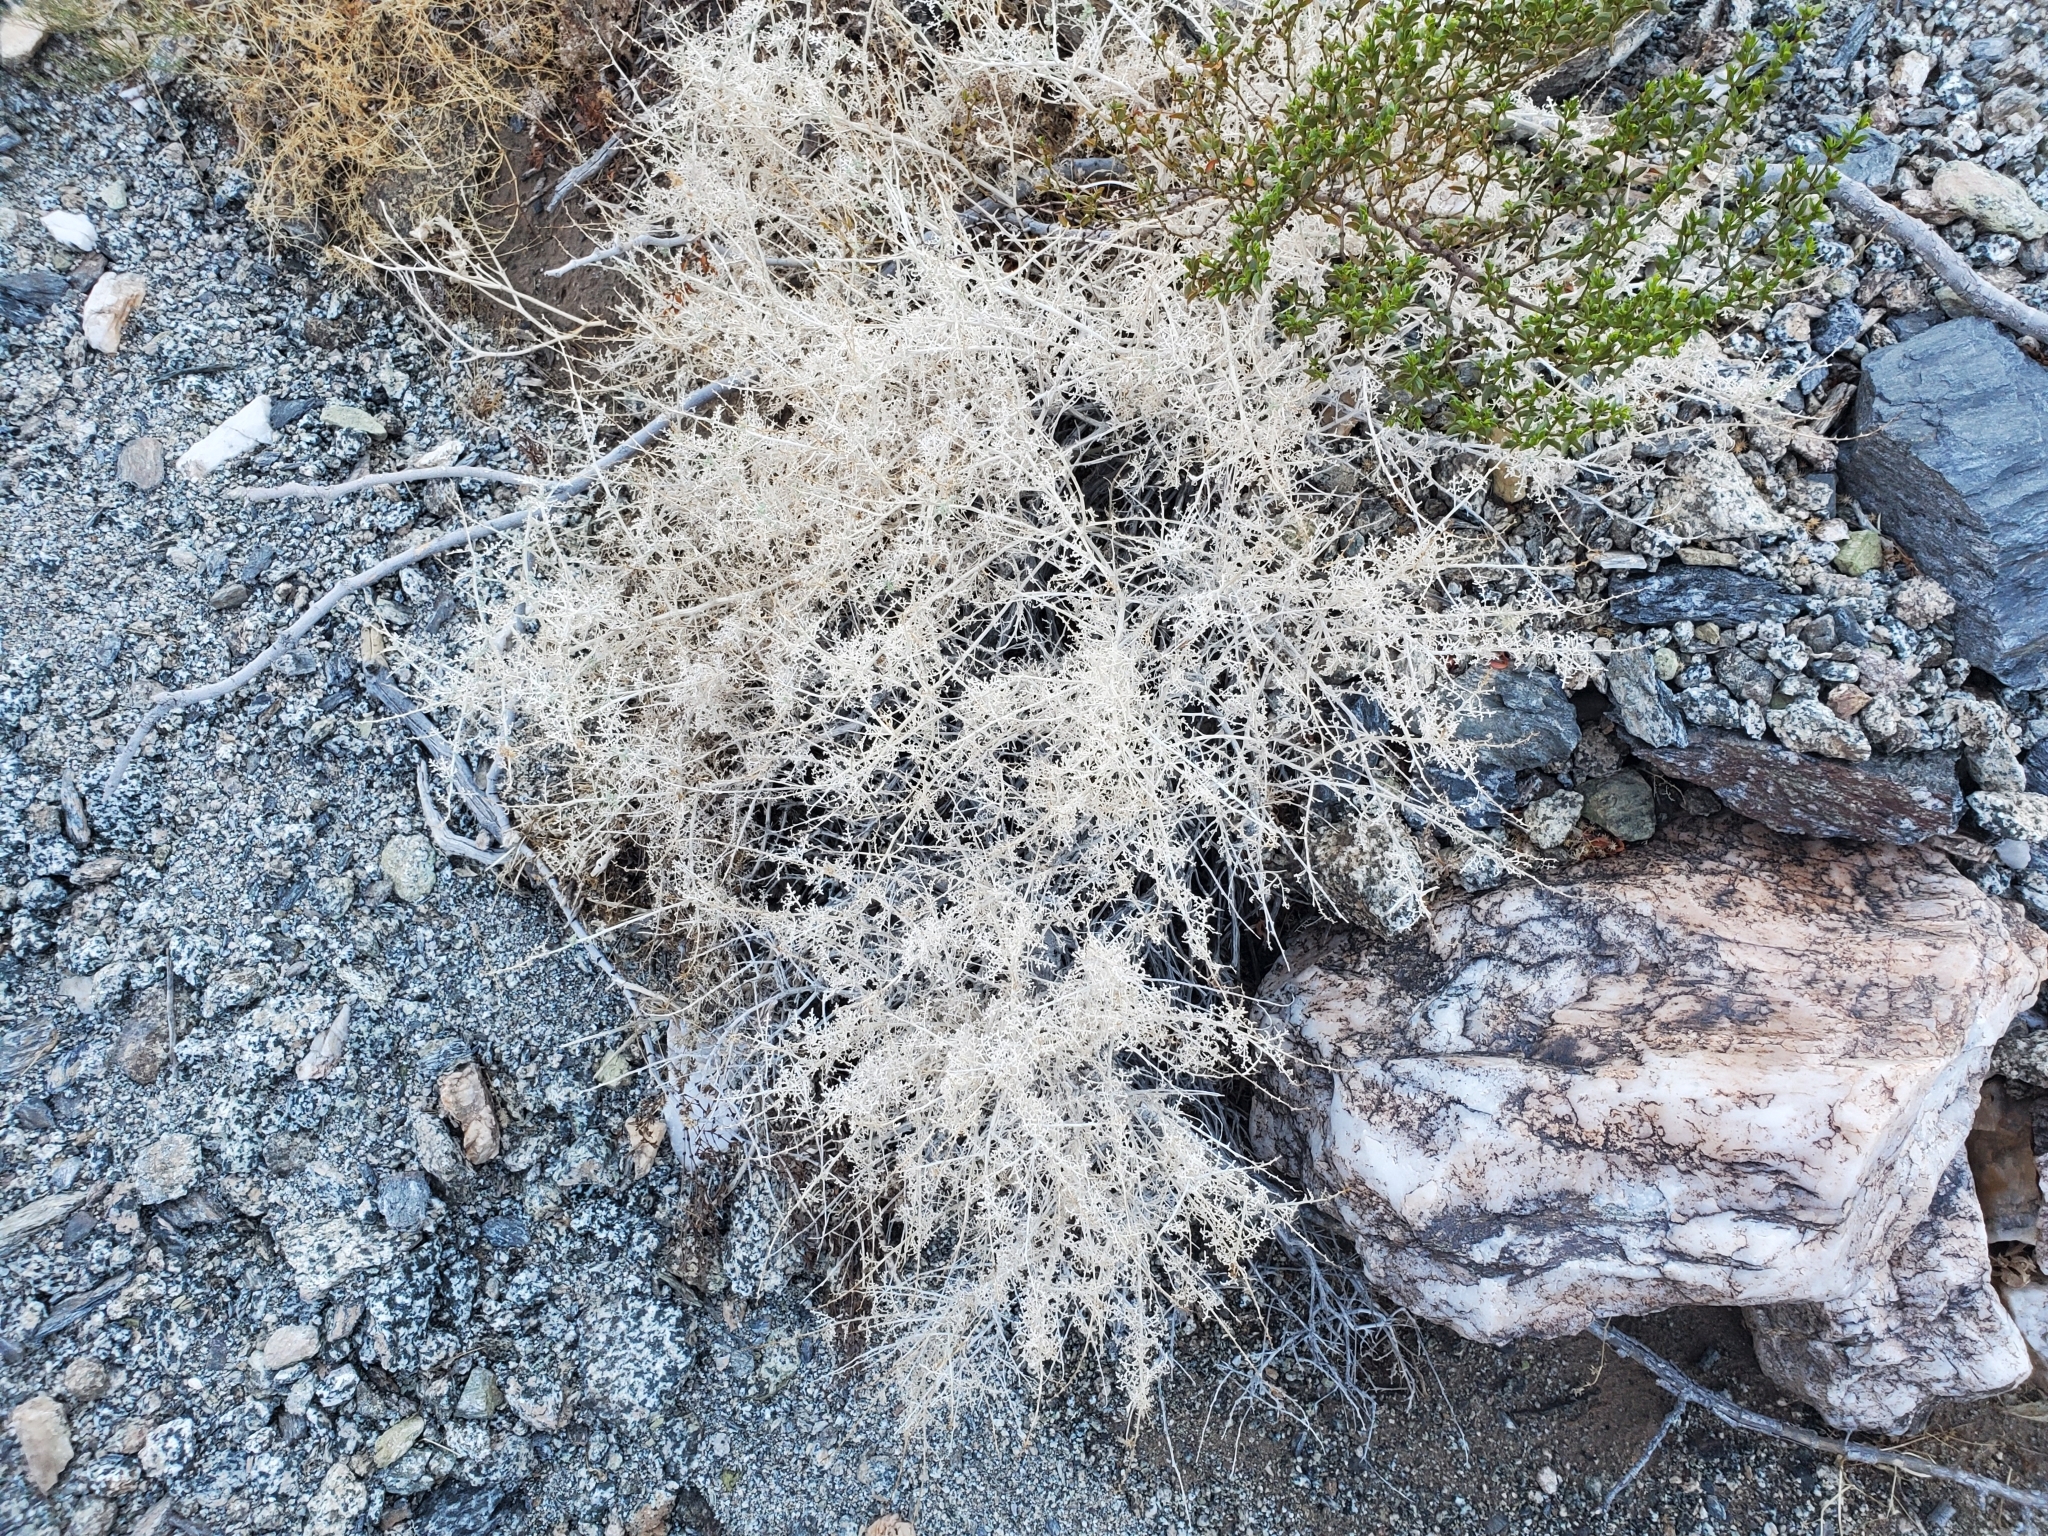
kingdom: Plantae
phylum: Tracheophyta
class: Magnoliopsida
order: Asterales
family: Asteraceae
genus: Ambrosia
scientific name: Ambrosia dumosa
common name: Bur-sage
